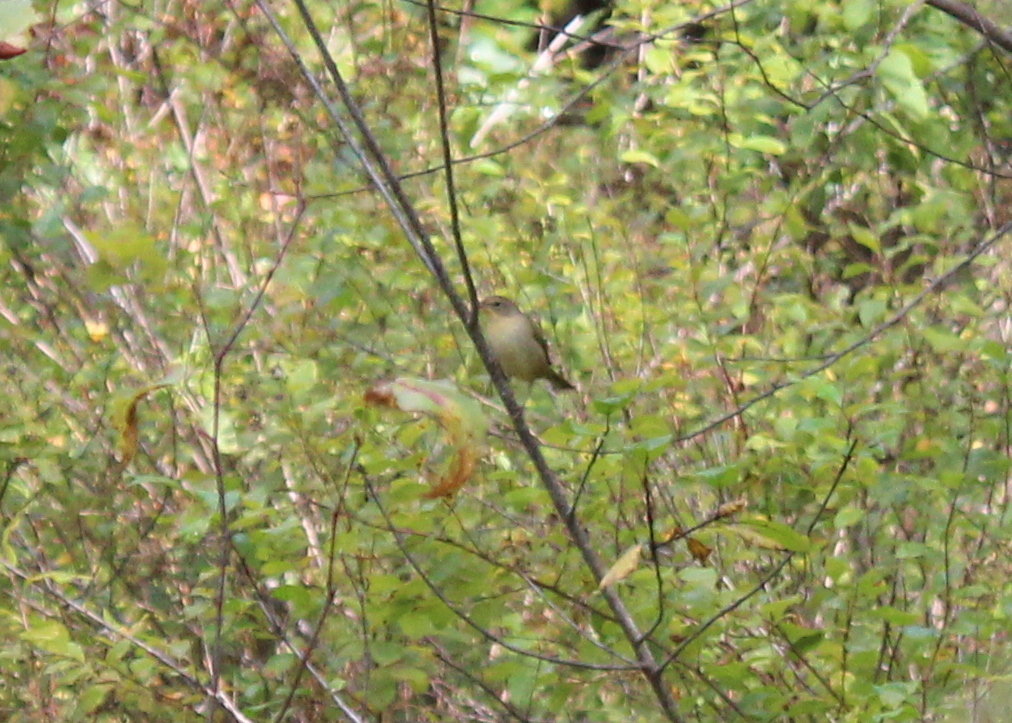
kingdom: Animalia
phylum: Chordata
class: Aves
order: Passeriformes
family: Parulidae
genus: Geothlypis
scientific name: Geothlypis trichas
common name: Common yellowthroat
